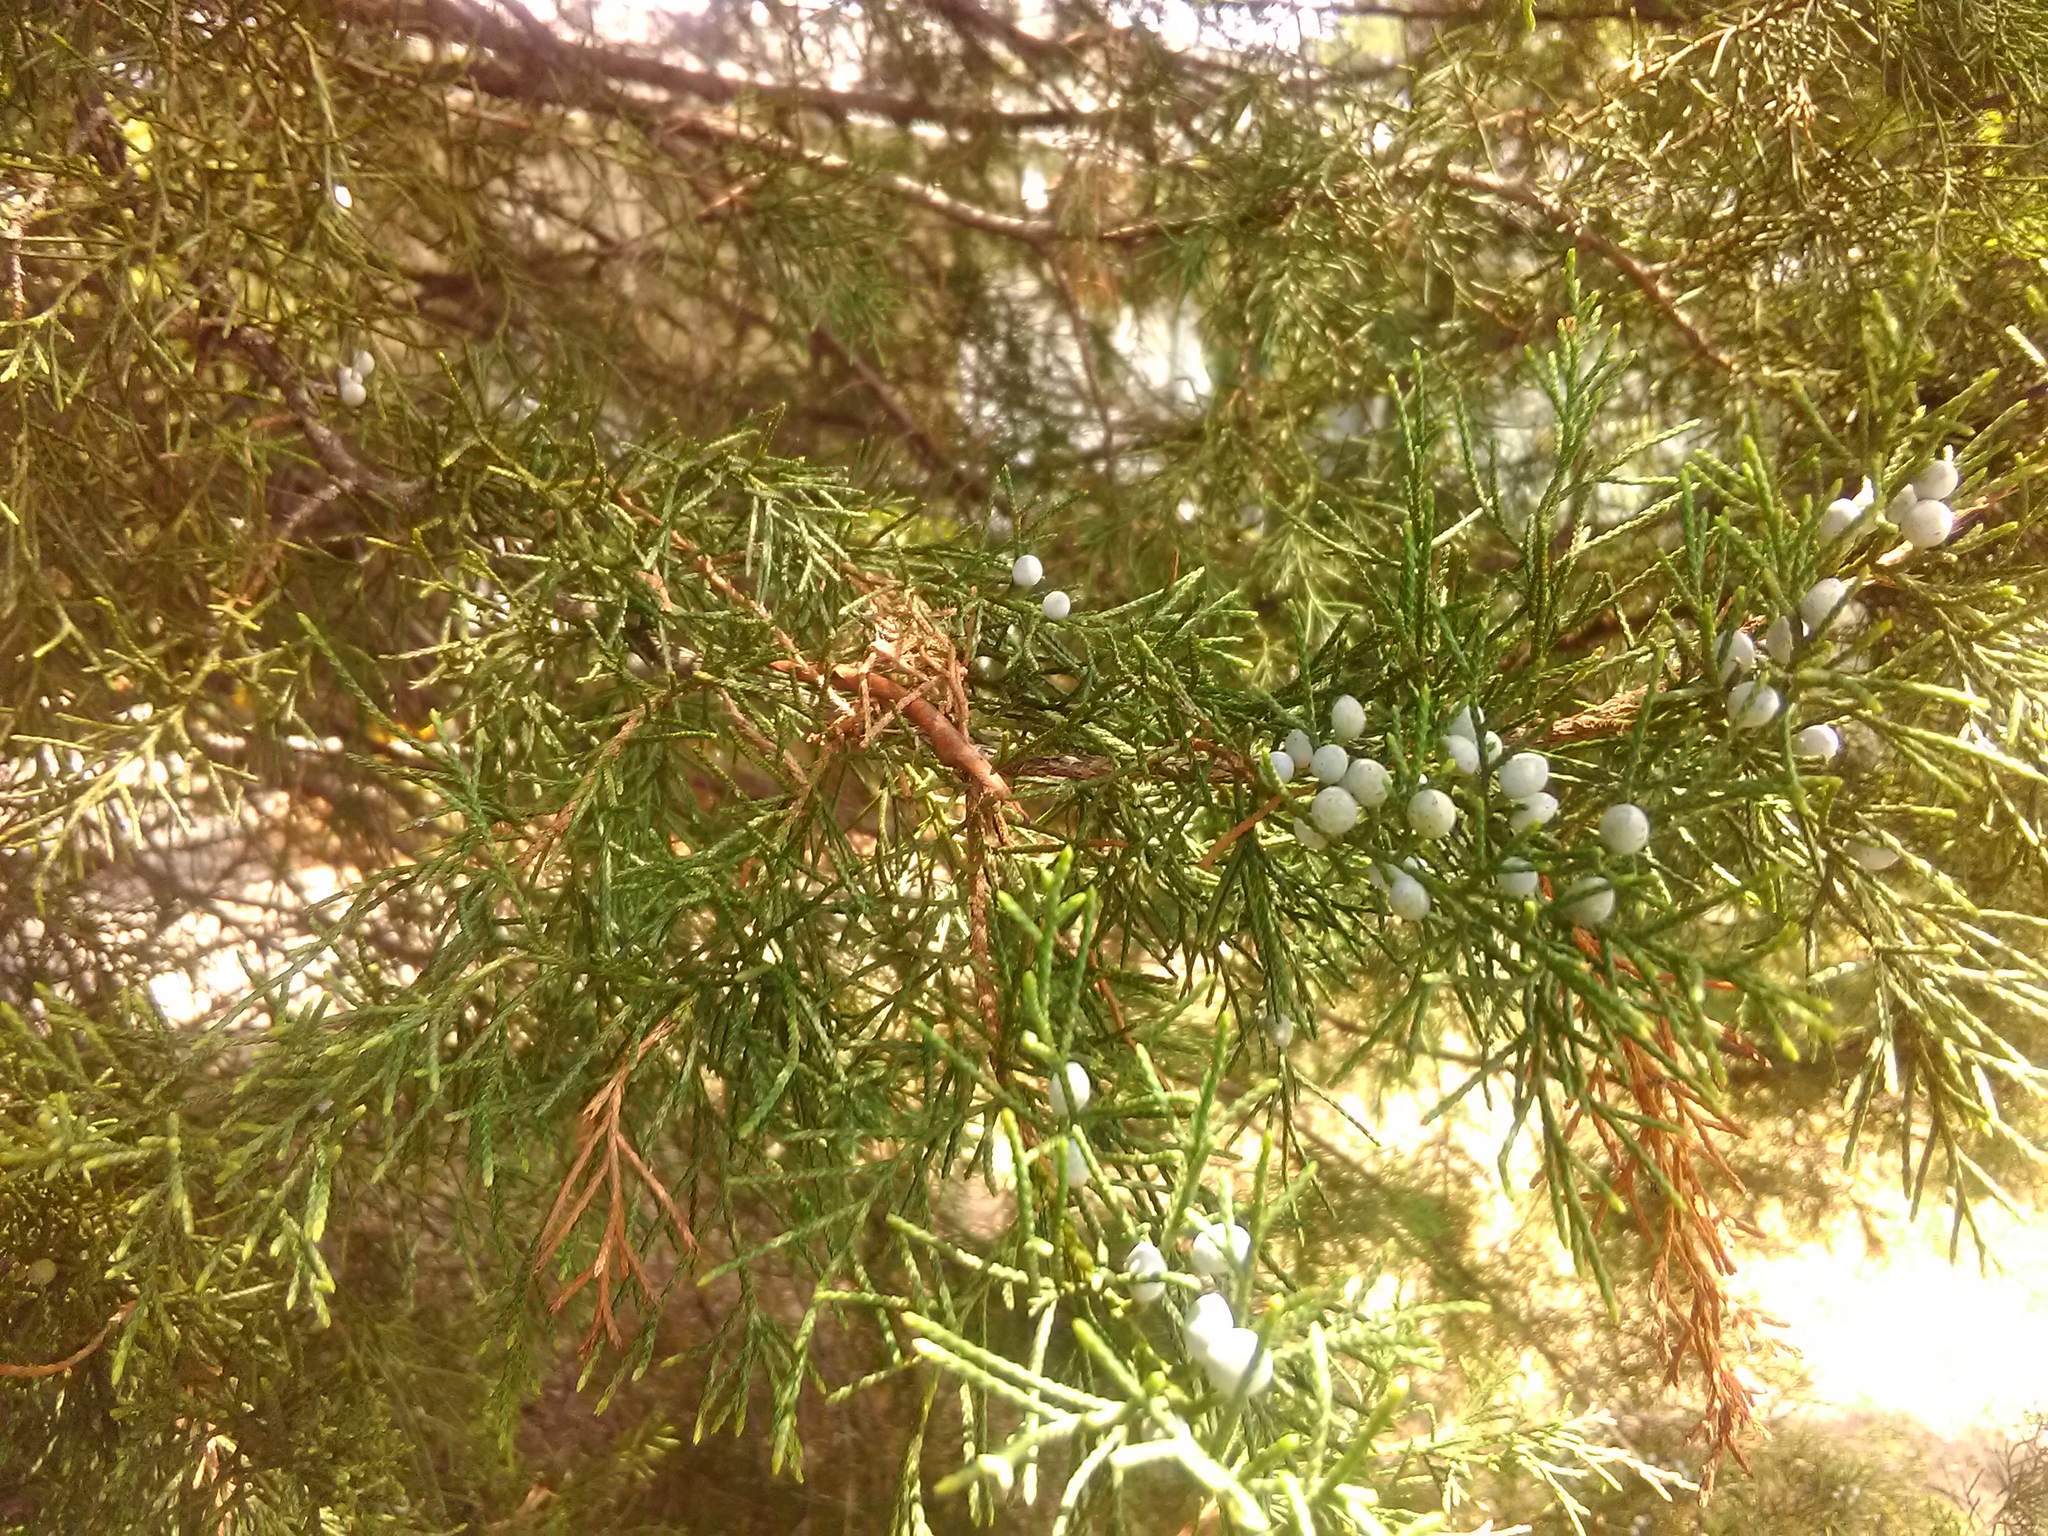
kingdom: Plantae
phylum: Tracheophyta
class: Pinopsida
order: Pinales
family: Cupressaceae
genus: Juniperus
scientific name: Juniperus virginiana
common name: Red juniper
